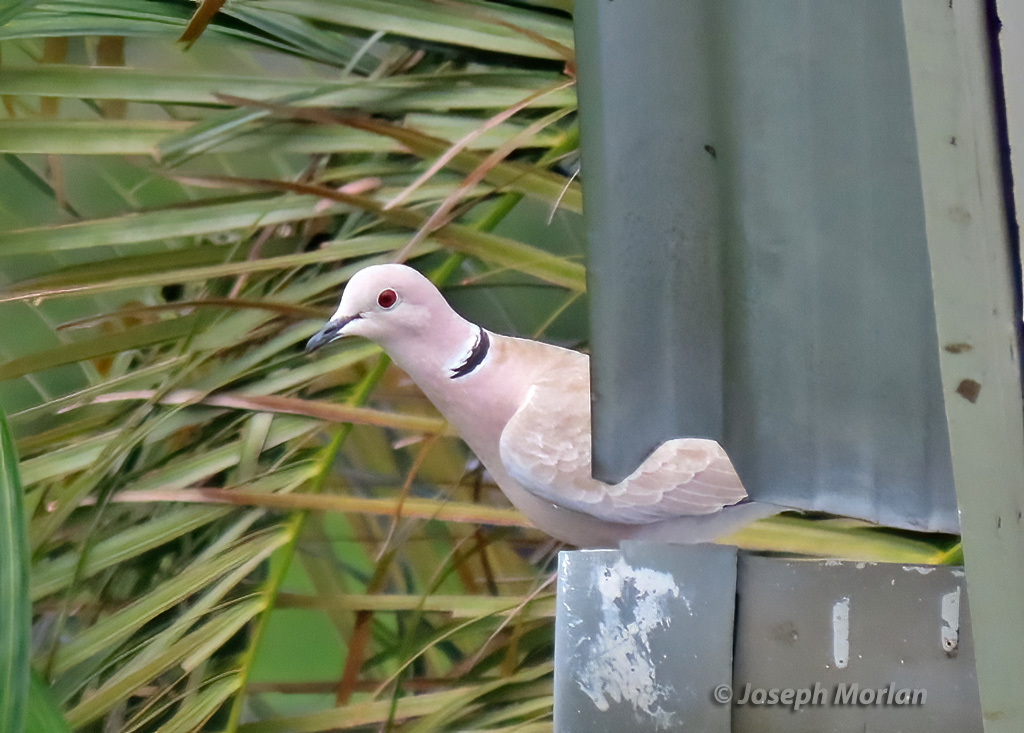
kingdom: Animalia
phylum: Chordata
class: Aves
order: Columbiformes
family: Columbidae
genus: Streptopelia
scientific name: Streptopelia decaocto
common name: Eurasian collared dove
